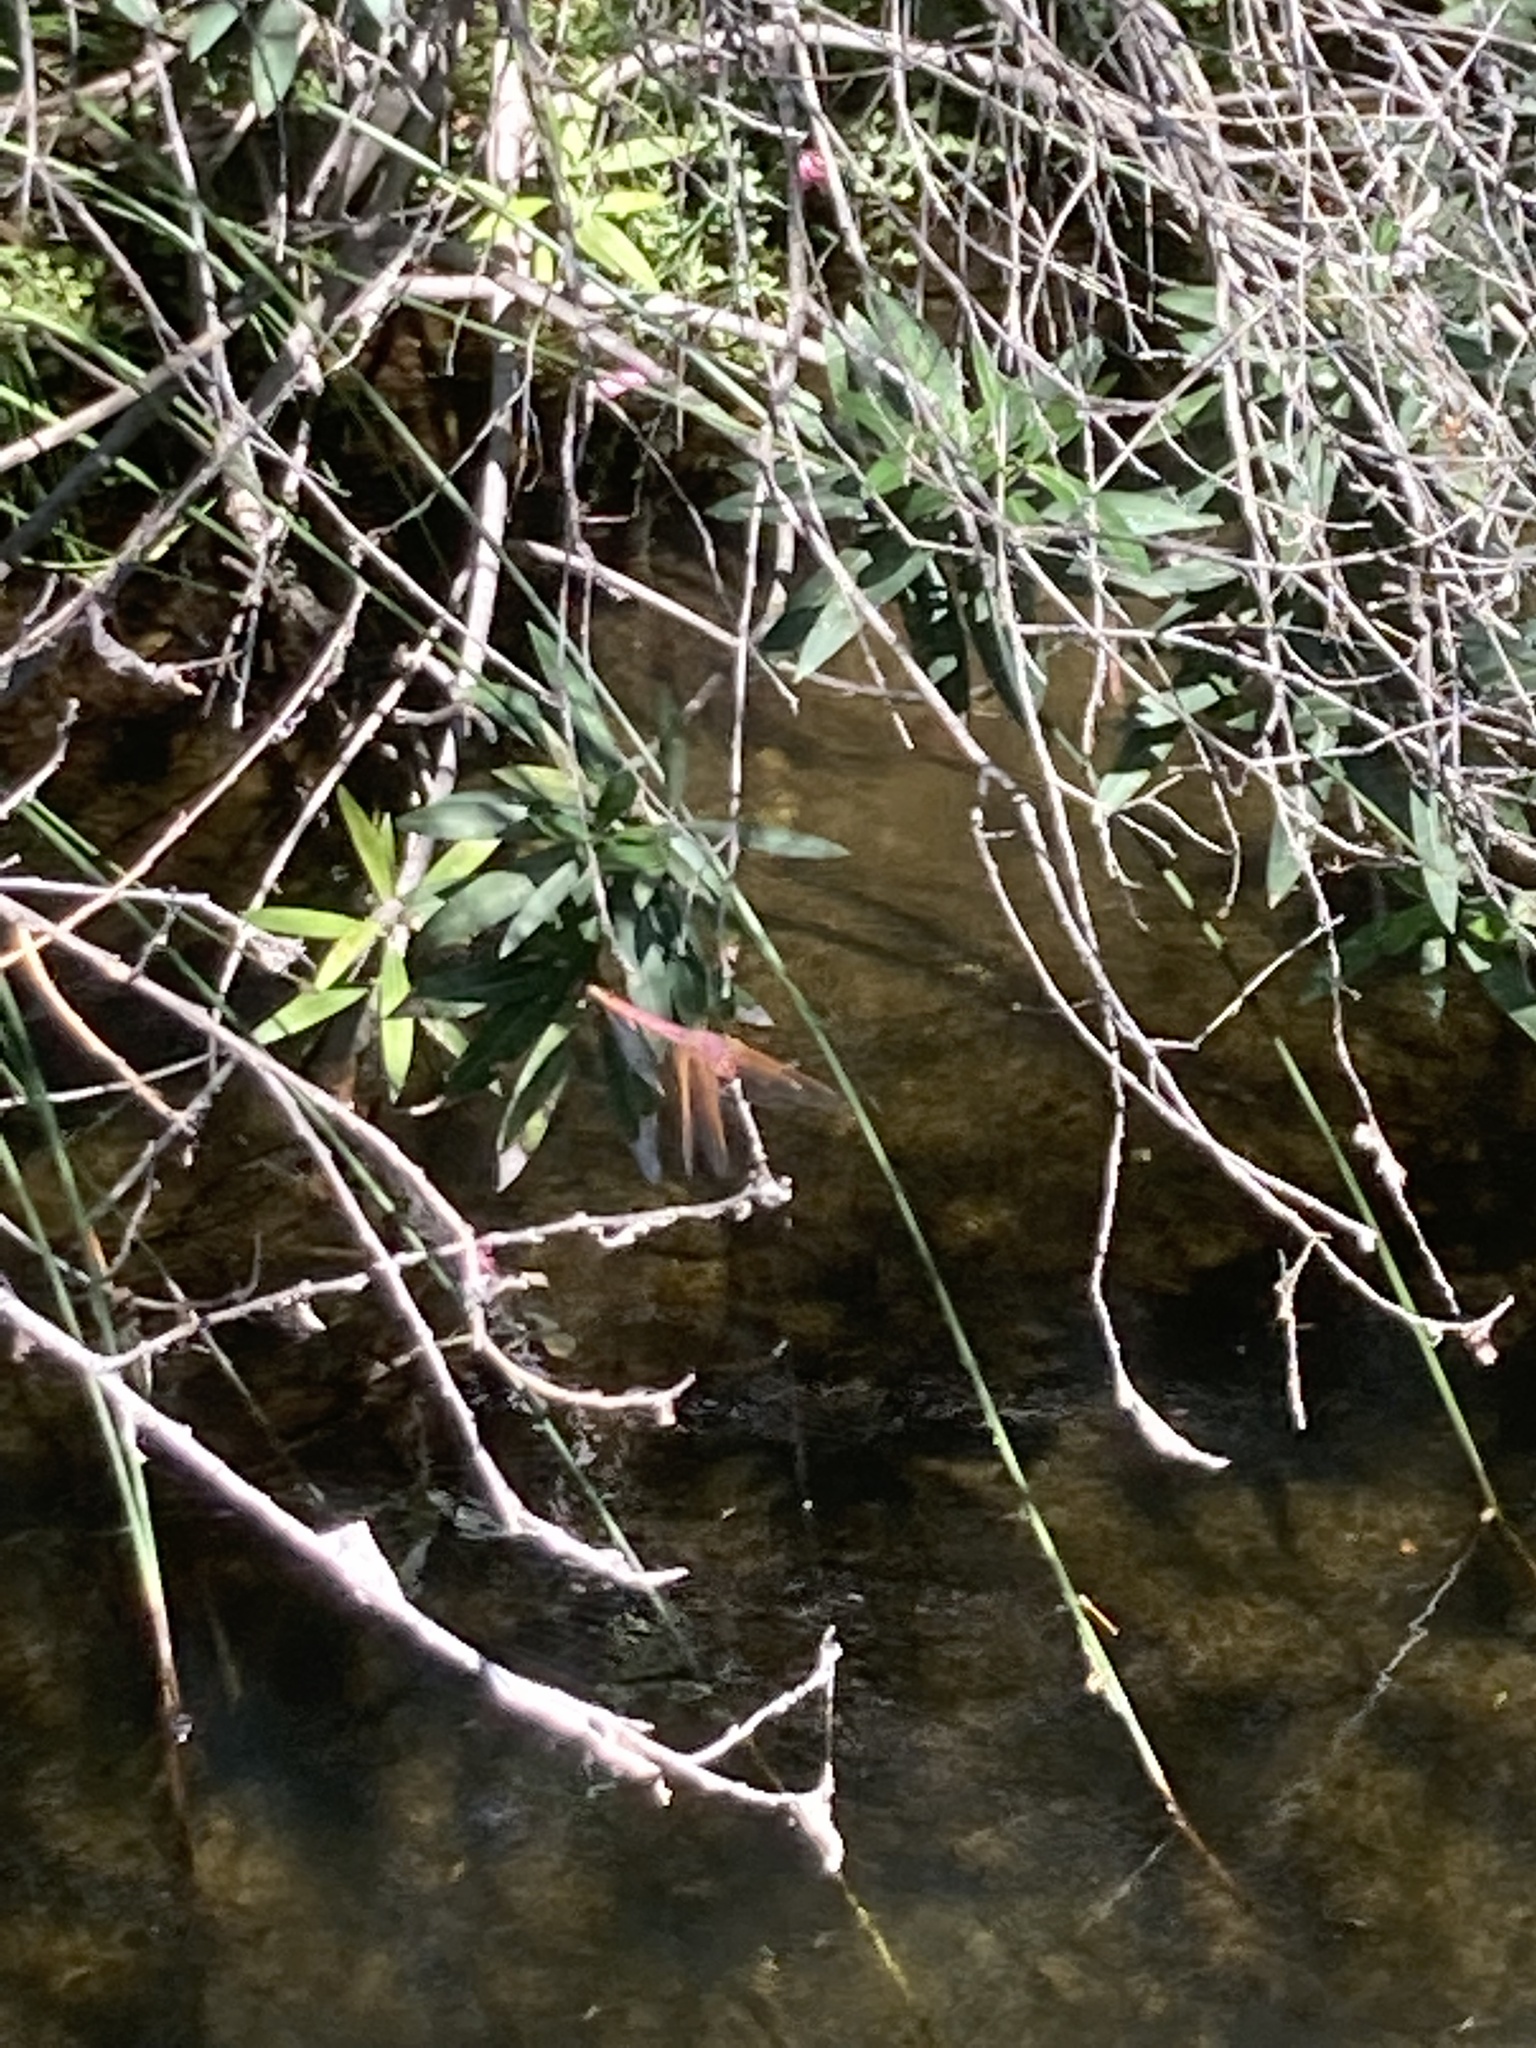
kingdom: Animalia
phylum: Arthropoda
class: Insecta
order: Odonata
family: Libellulidae
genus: Trithemis
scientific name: Trithemis annulata
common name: Violet dropwing
